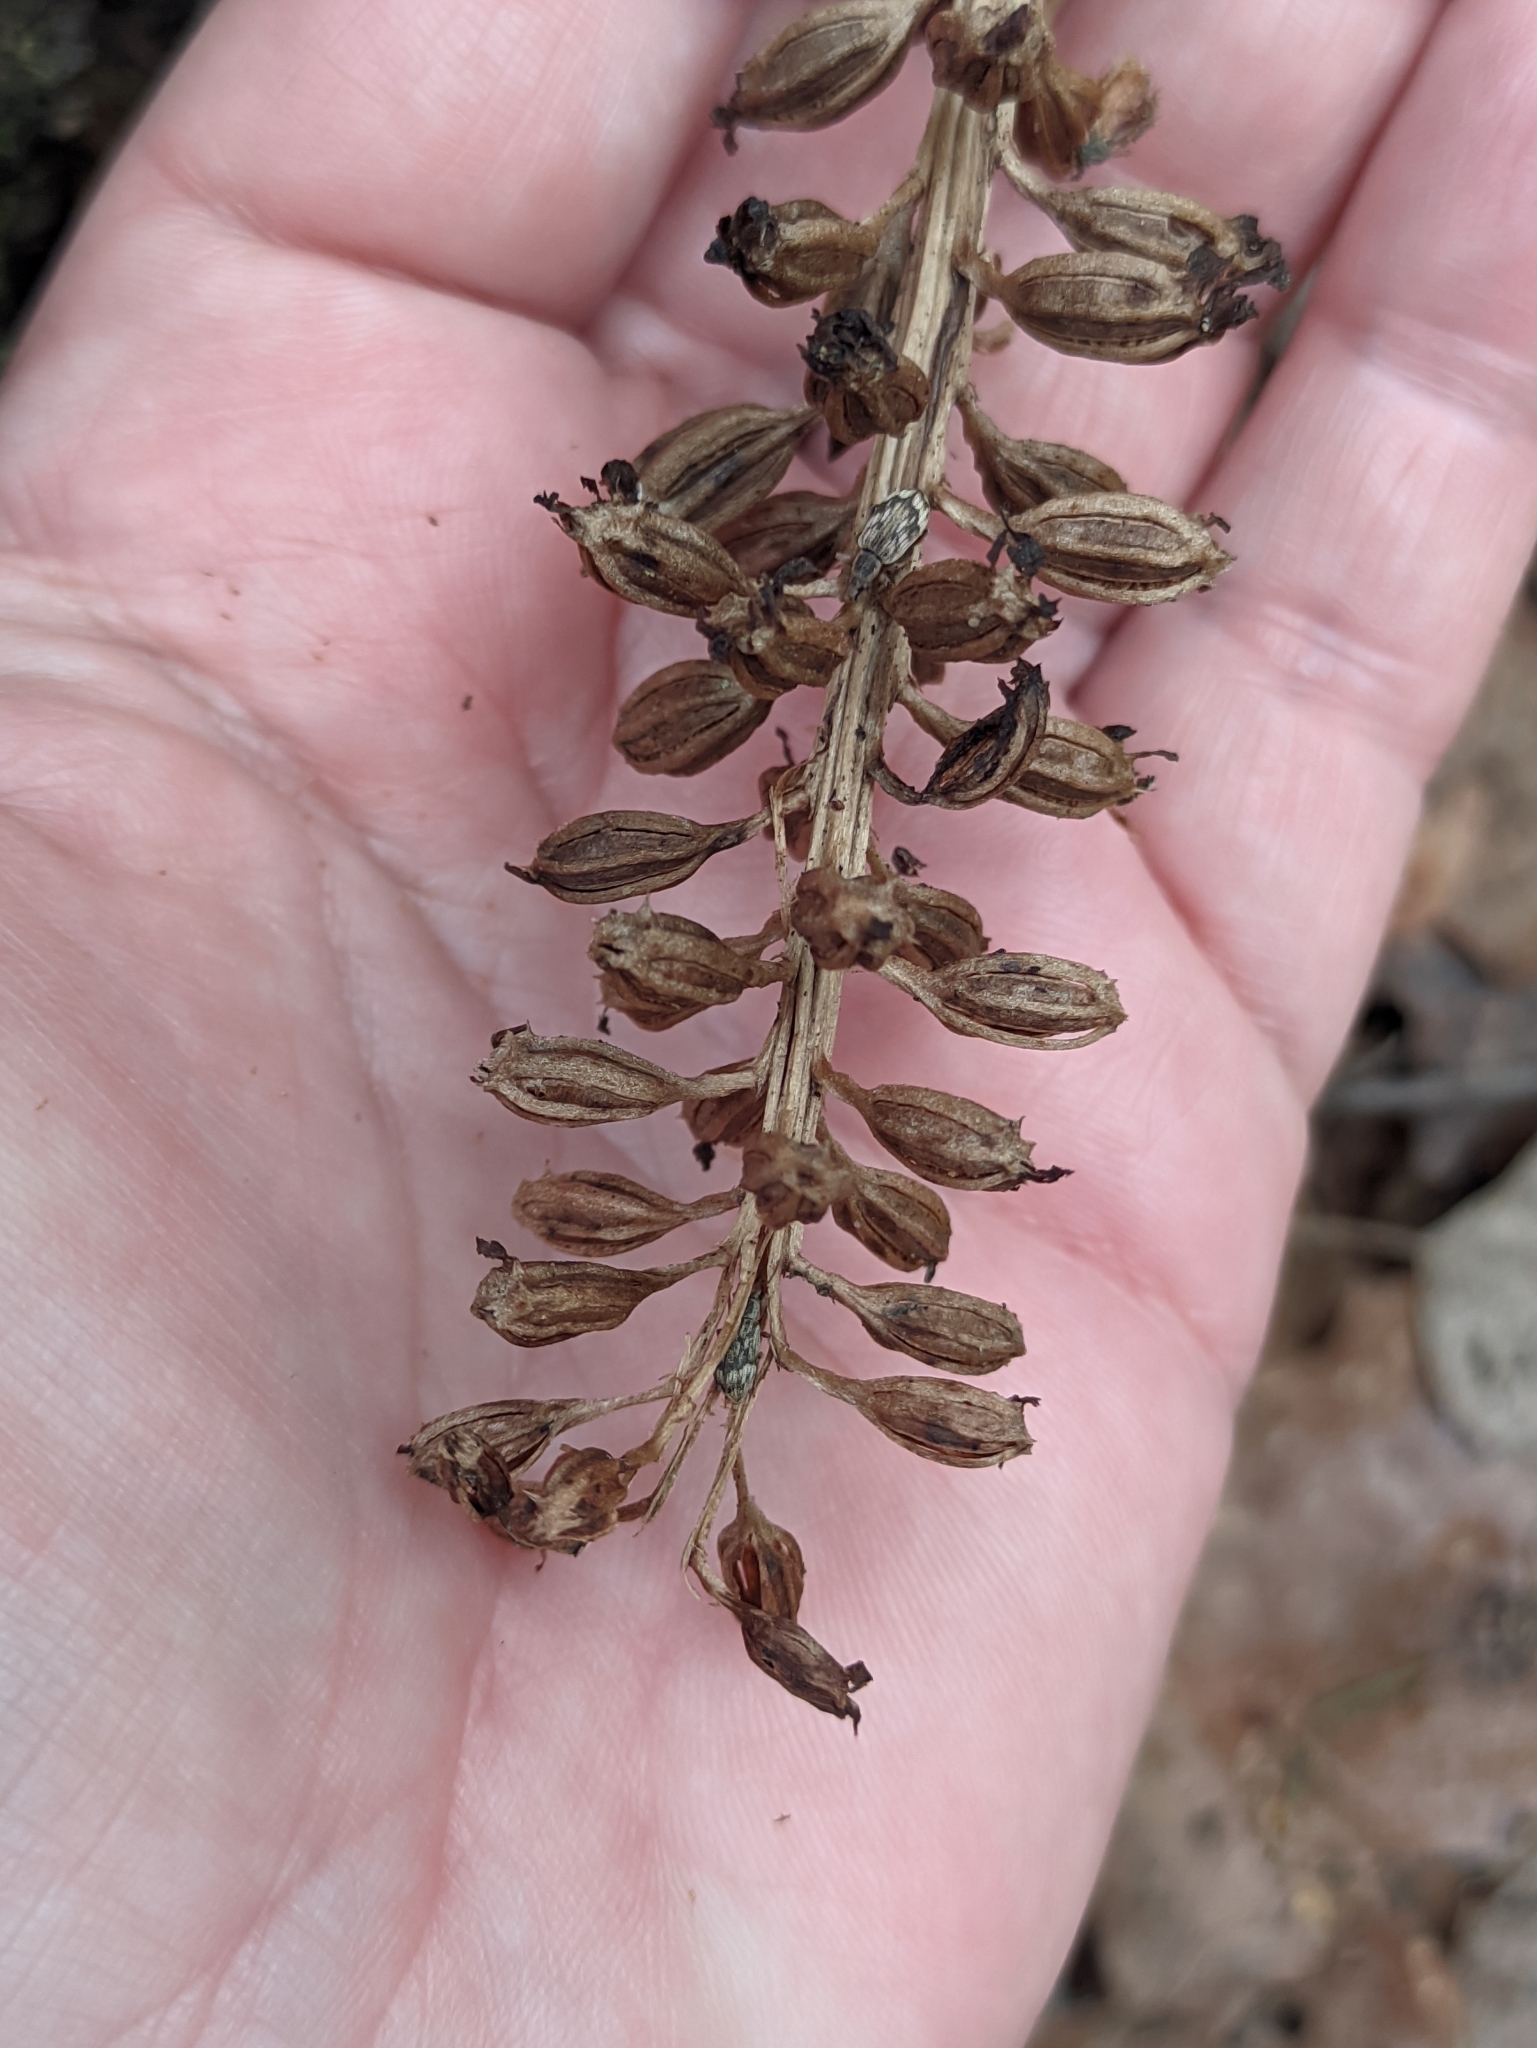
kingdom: Plantae
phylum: Tracheophyta
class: Liliopsida
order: Asparagales
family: Orchidaceae
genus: Neottia
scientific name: Neottia nidus-avis
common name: Bird's-nest orchid
